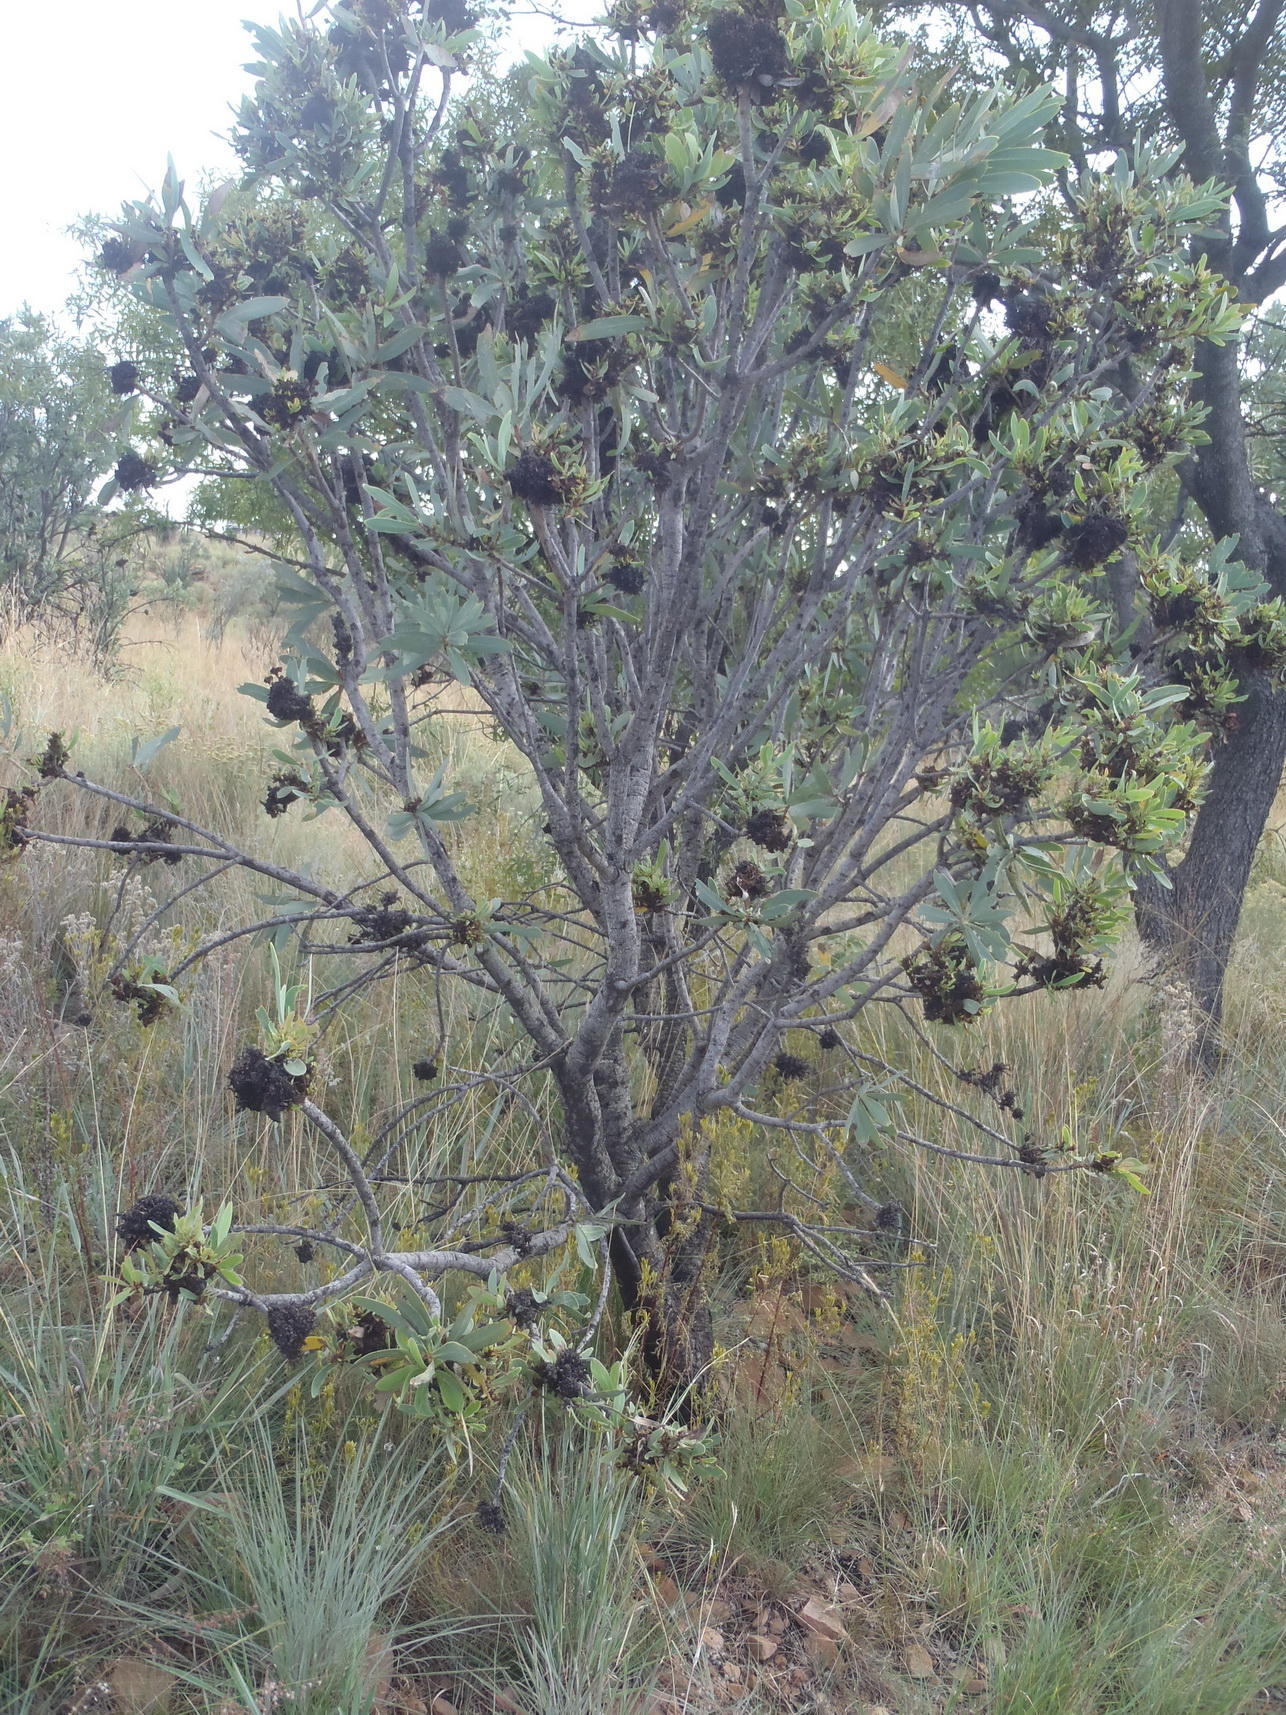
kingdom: Plantae
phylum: Tracheophyta
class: Magnoliopsida
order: Proteales
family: Proteaceae
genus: Protea
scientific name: Protea caffra
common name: Common sugarbush
